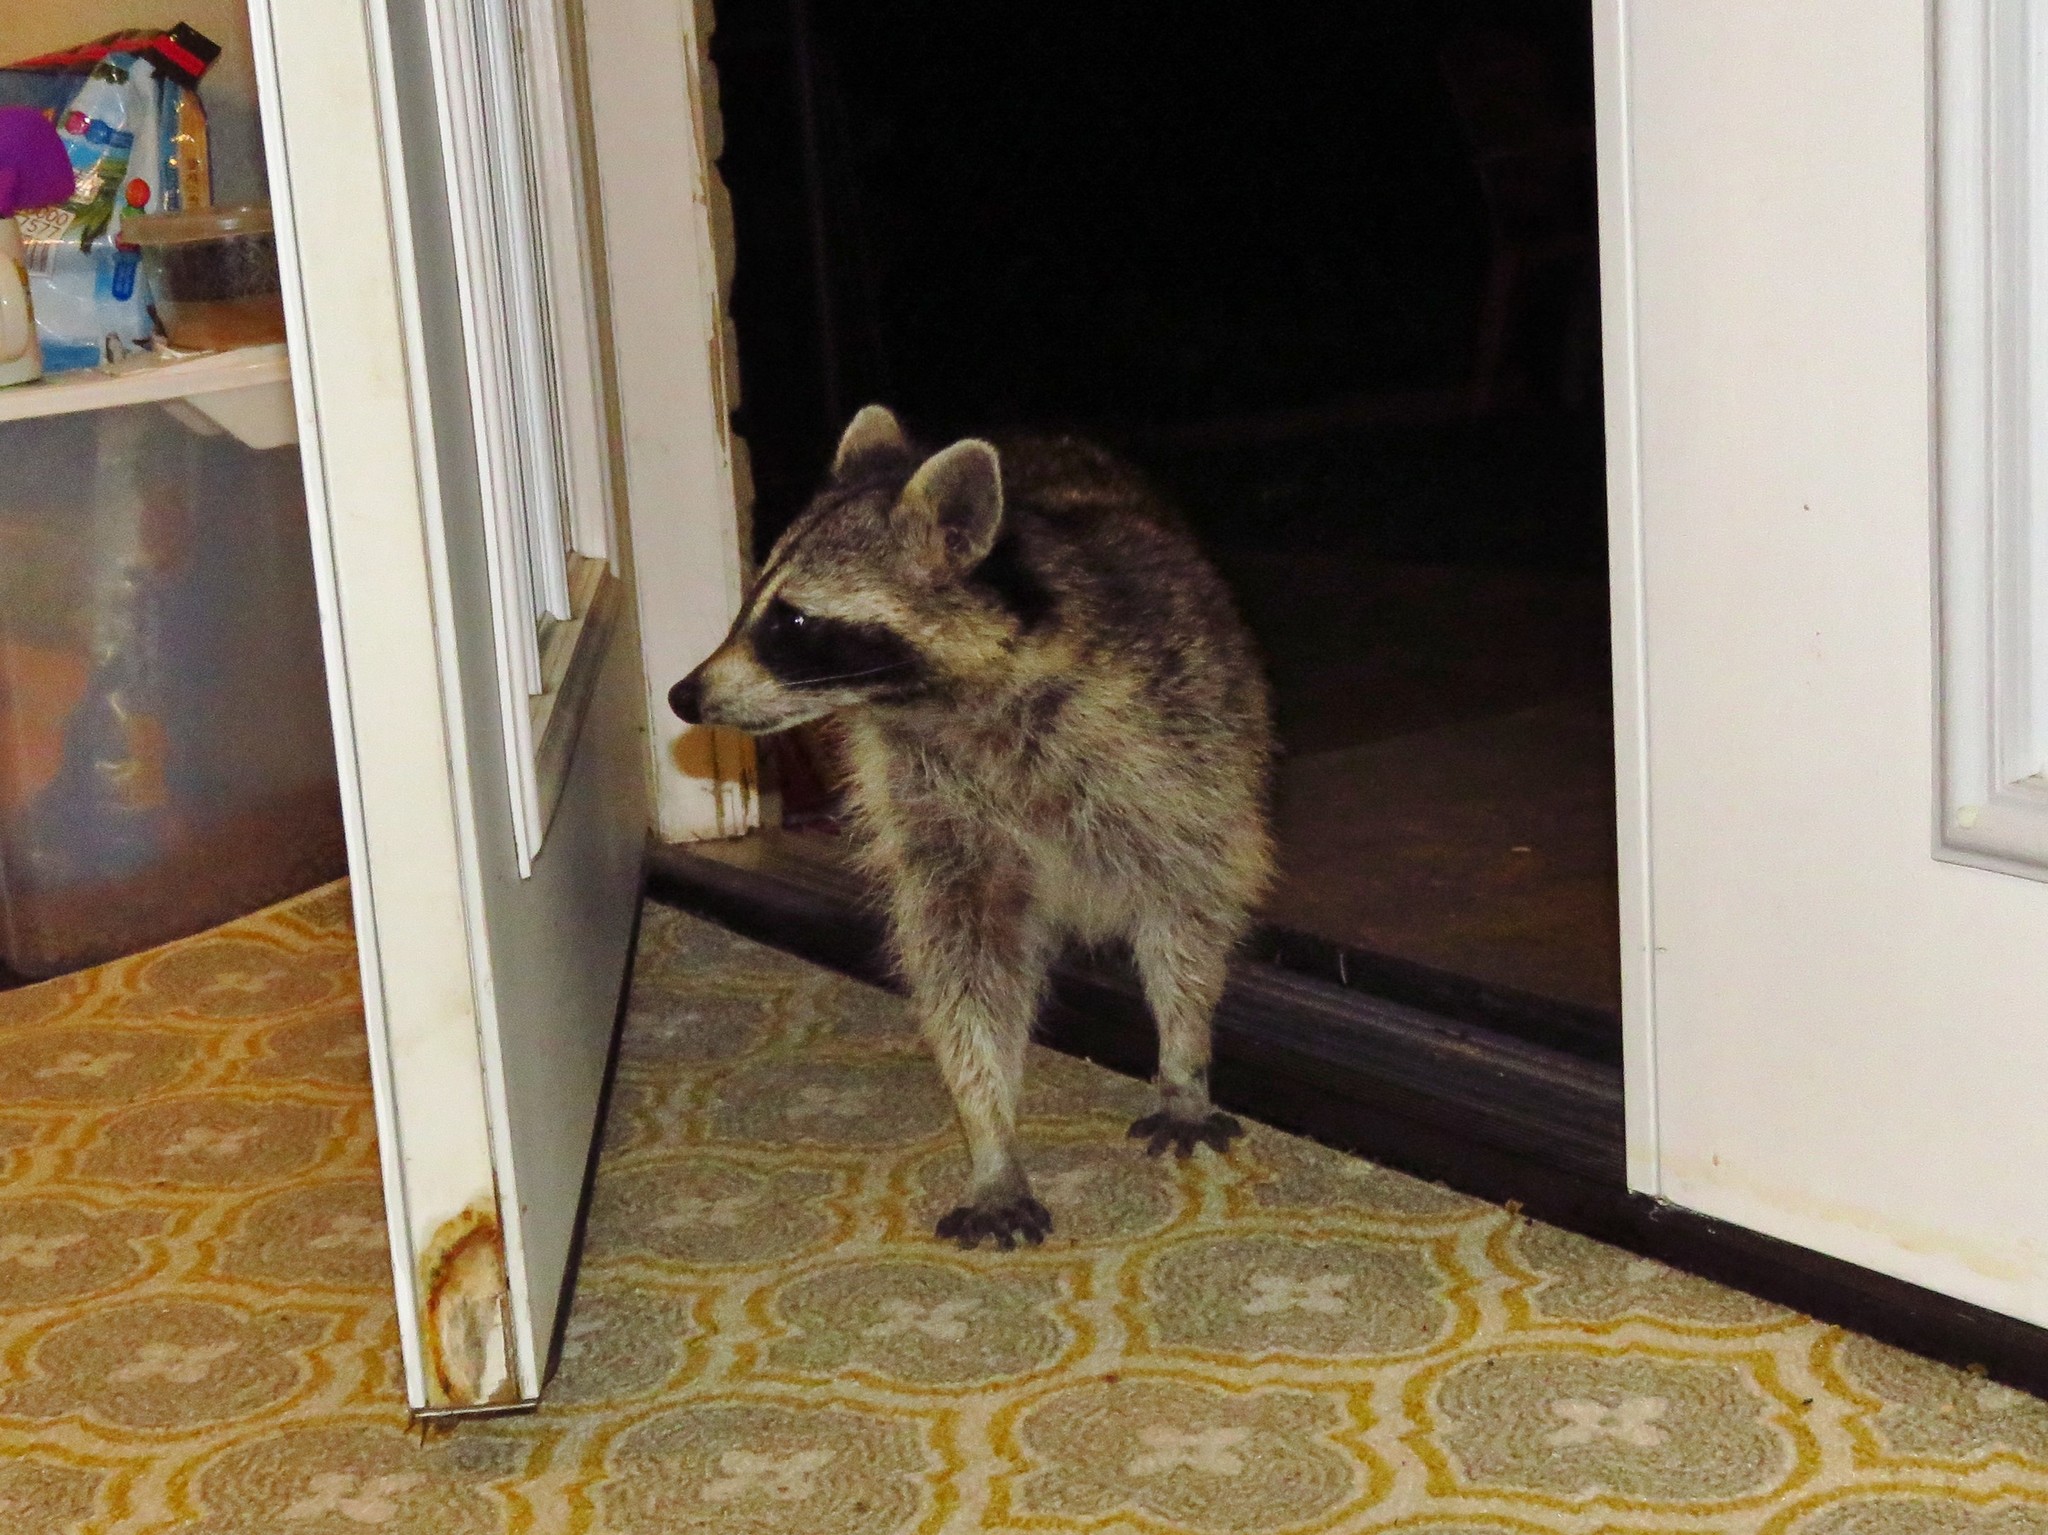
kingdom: Animalia
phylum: Chordata
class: Mammalia
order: Carnivora
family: Procyonidae
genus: Procyon
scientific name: Procyon lotor
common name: Raccoon
